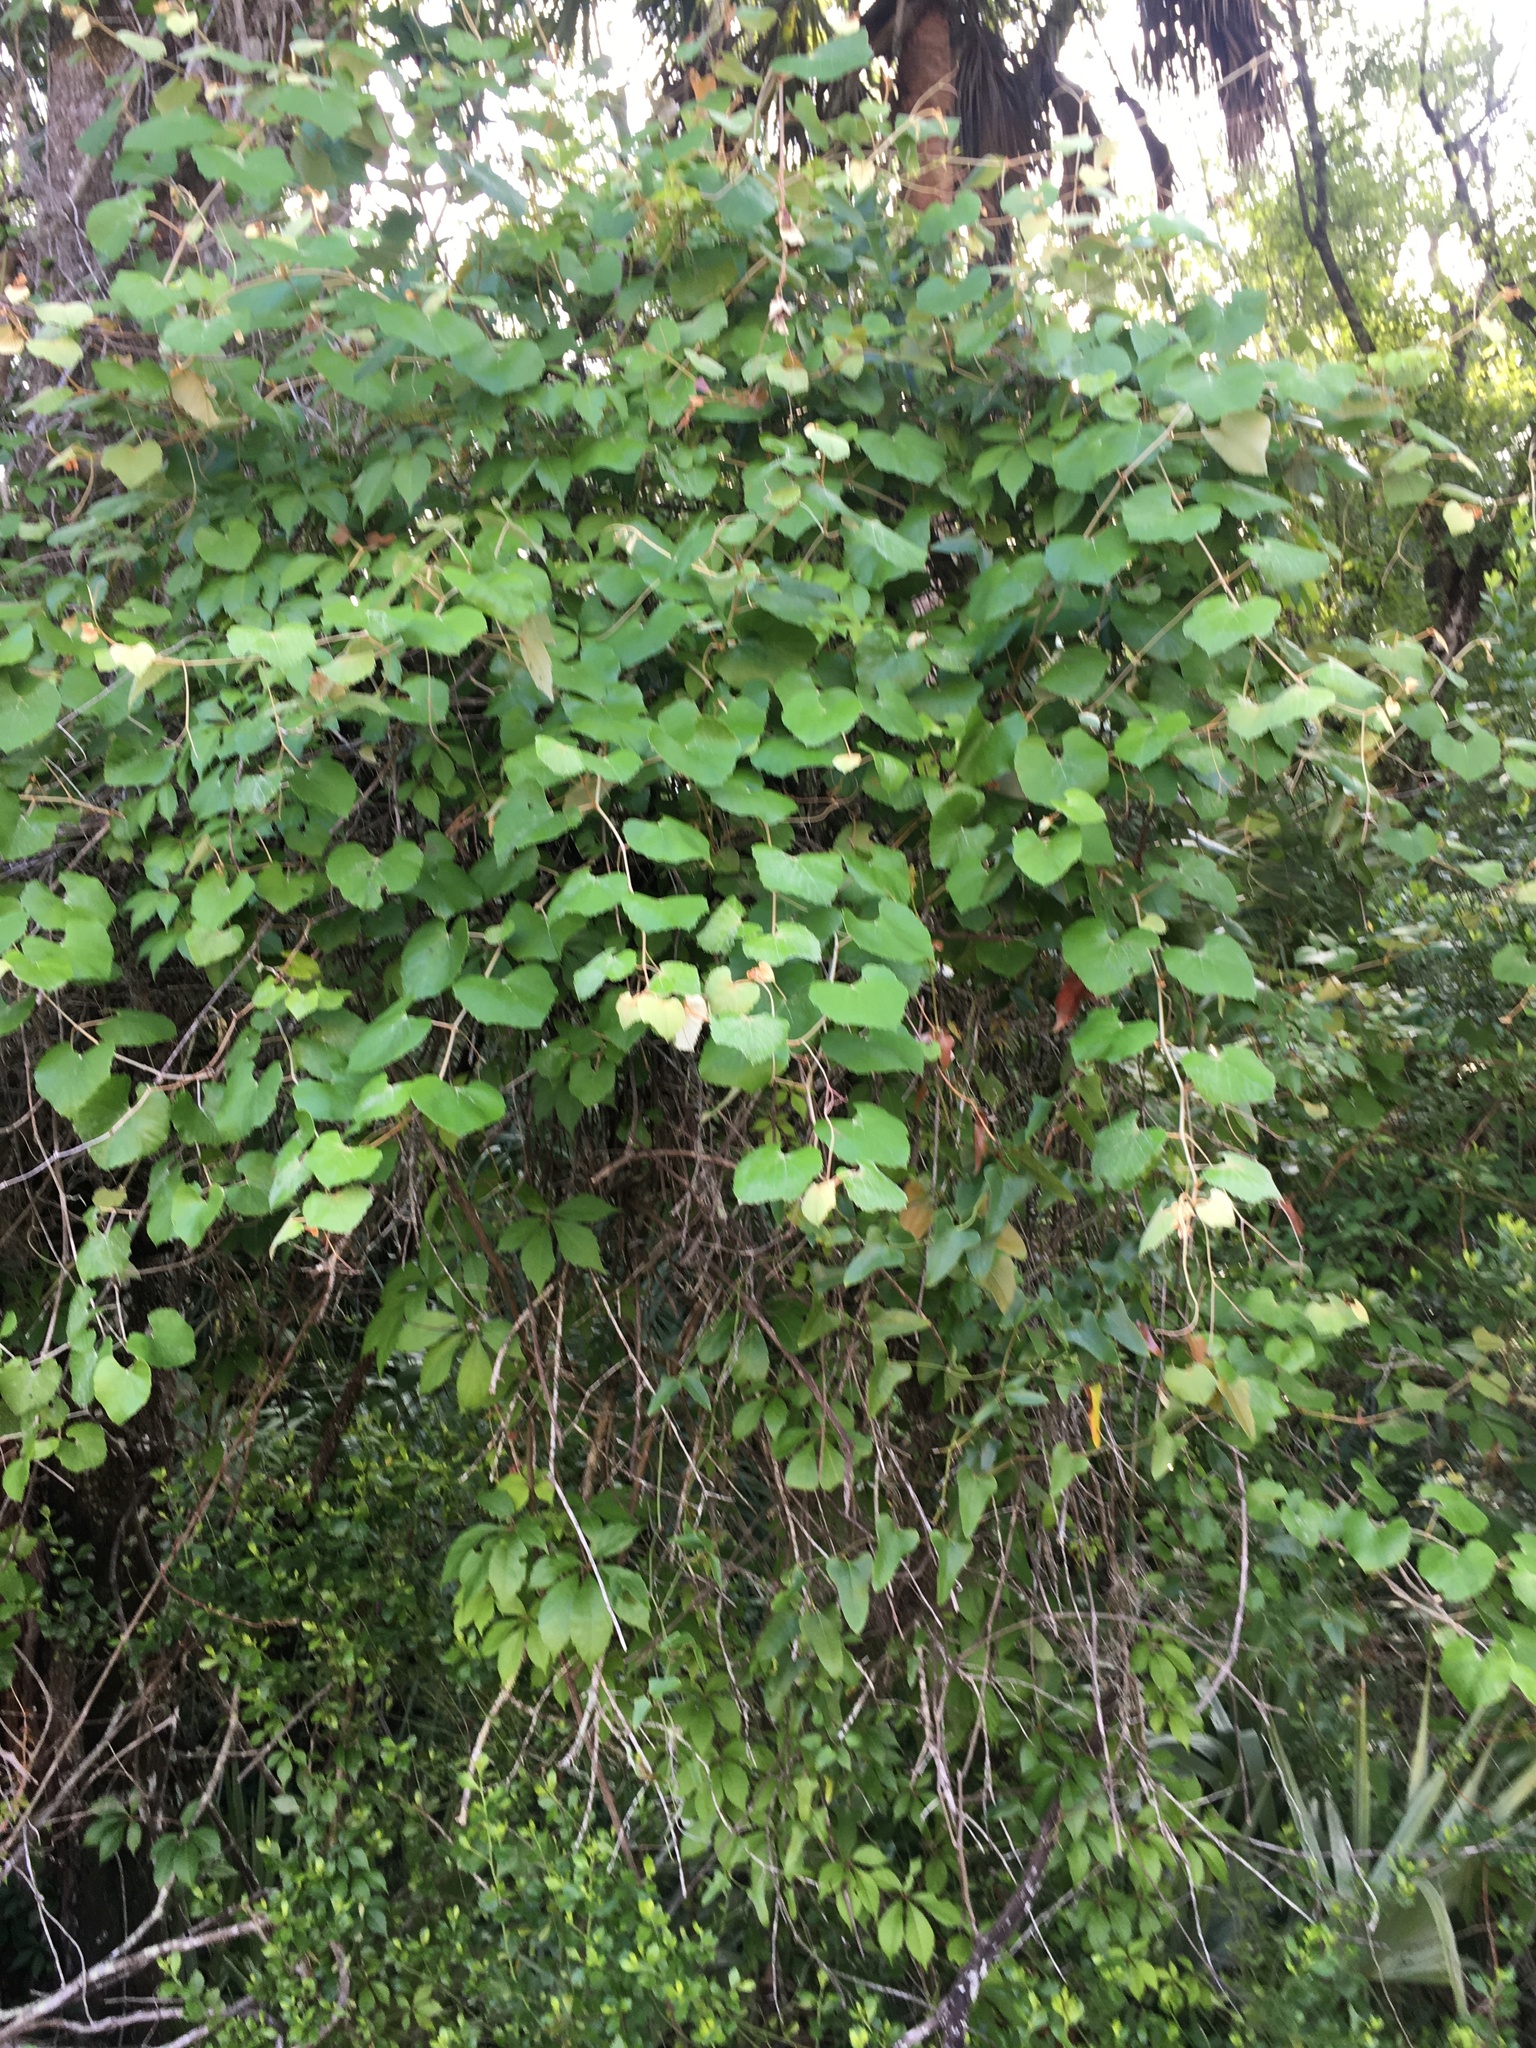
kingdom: Plantae
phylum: Tracheophyta
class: Magnoliopsida
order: Vitales
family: Vitaceae
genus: Vitis
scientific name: Vitis shuttleworthii
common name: Caloosa grape
